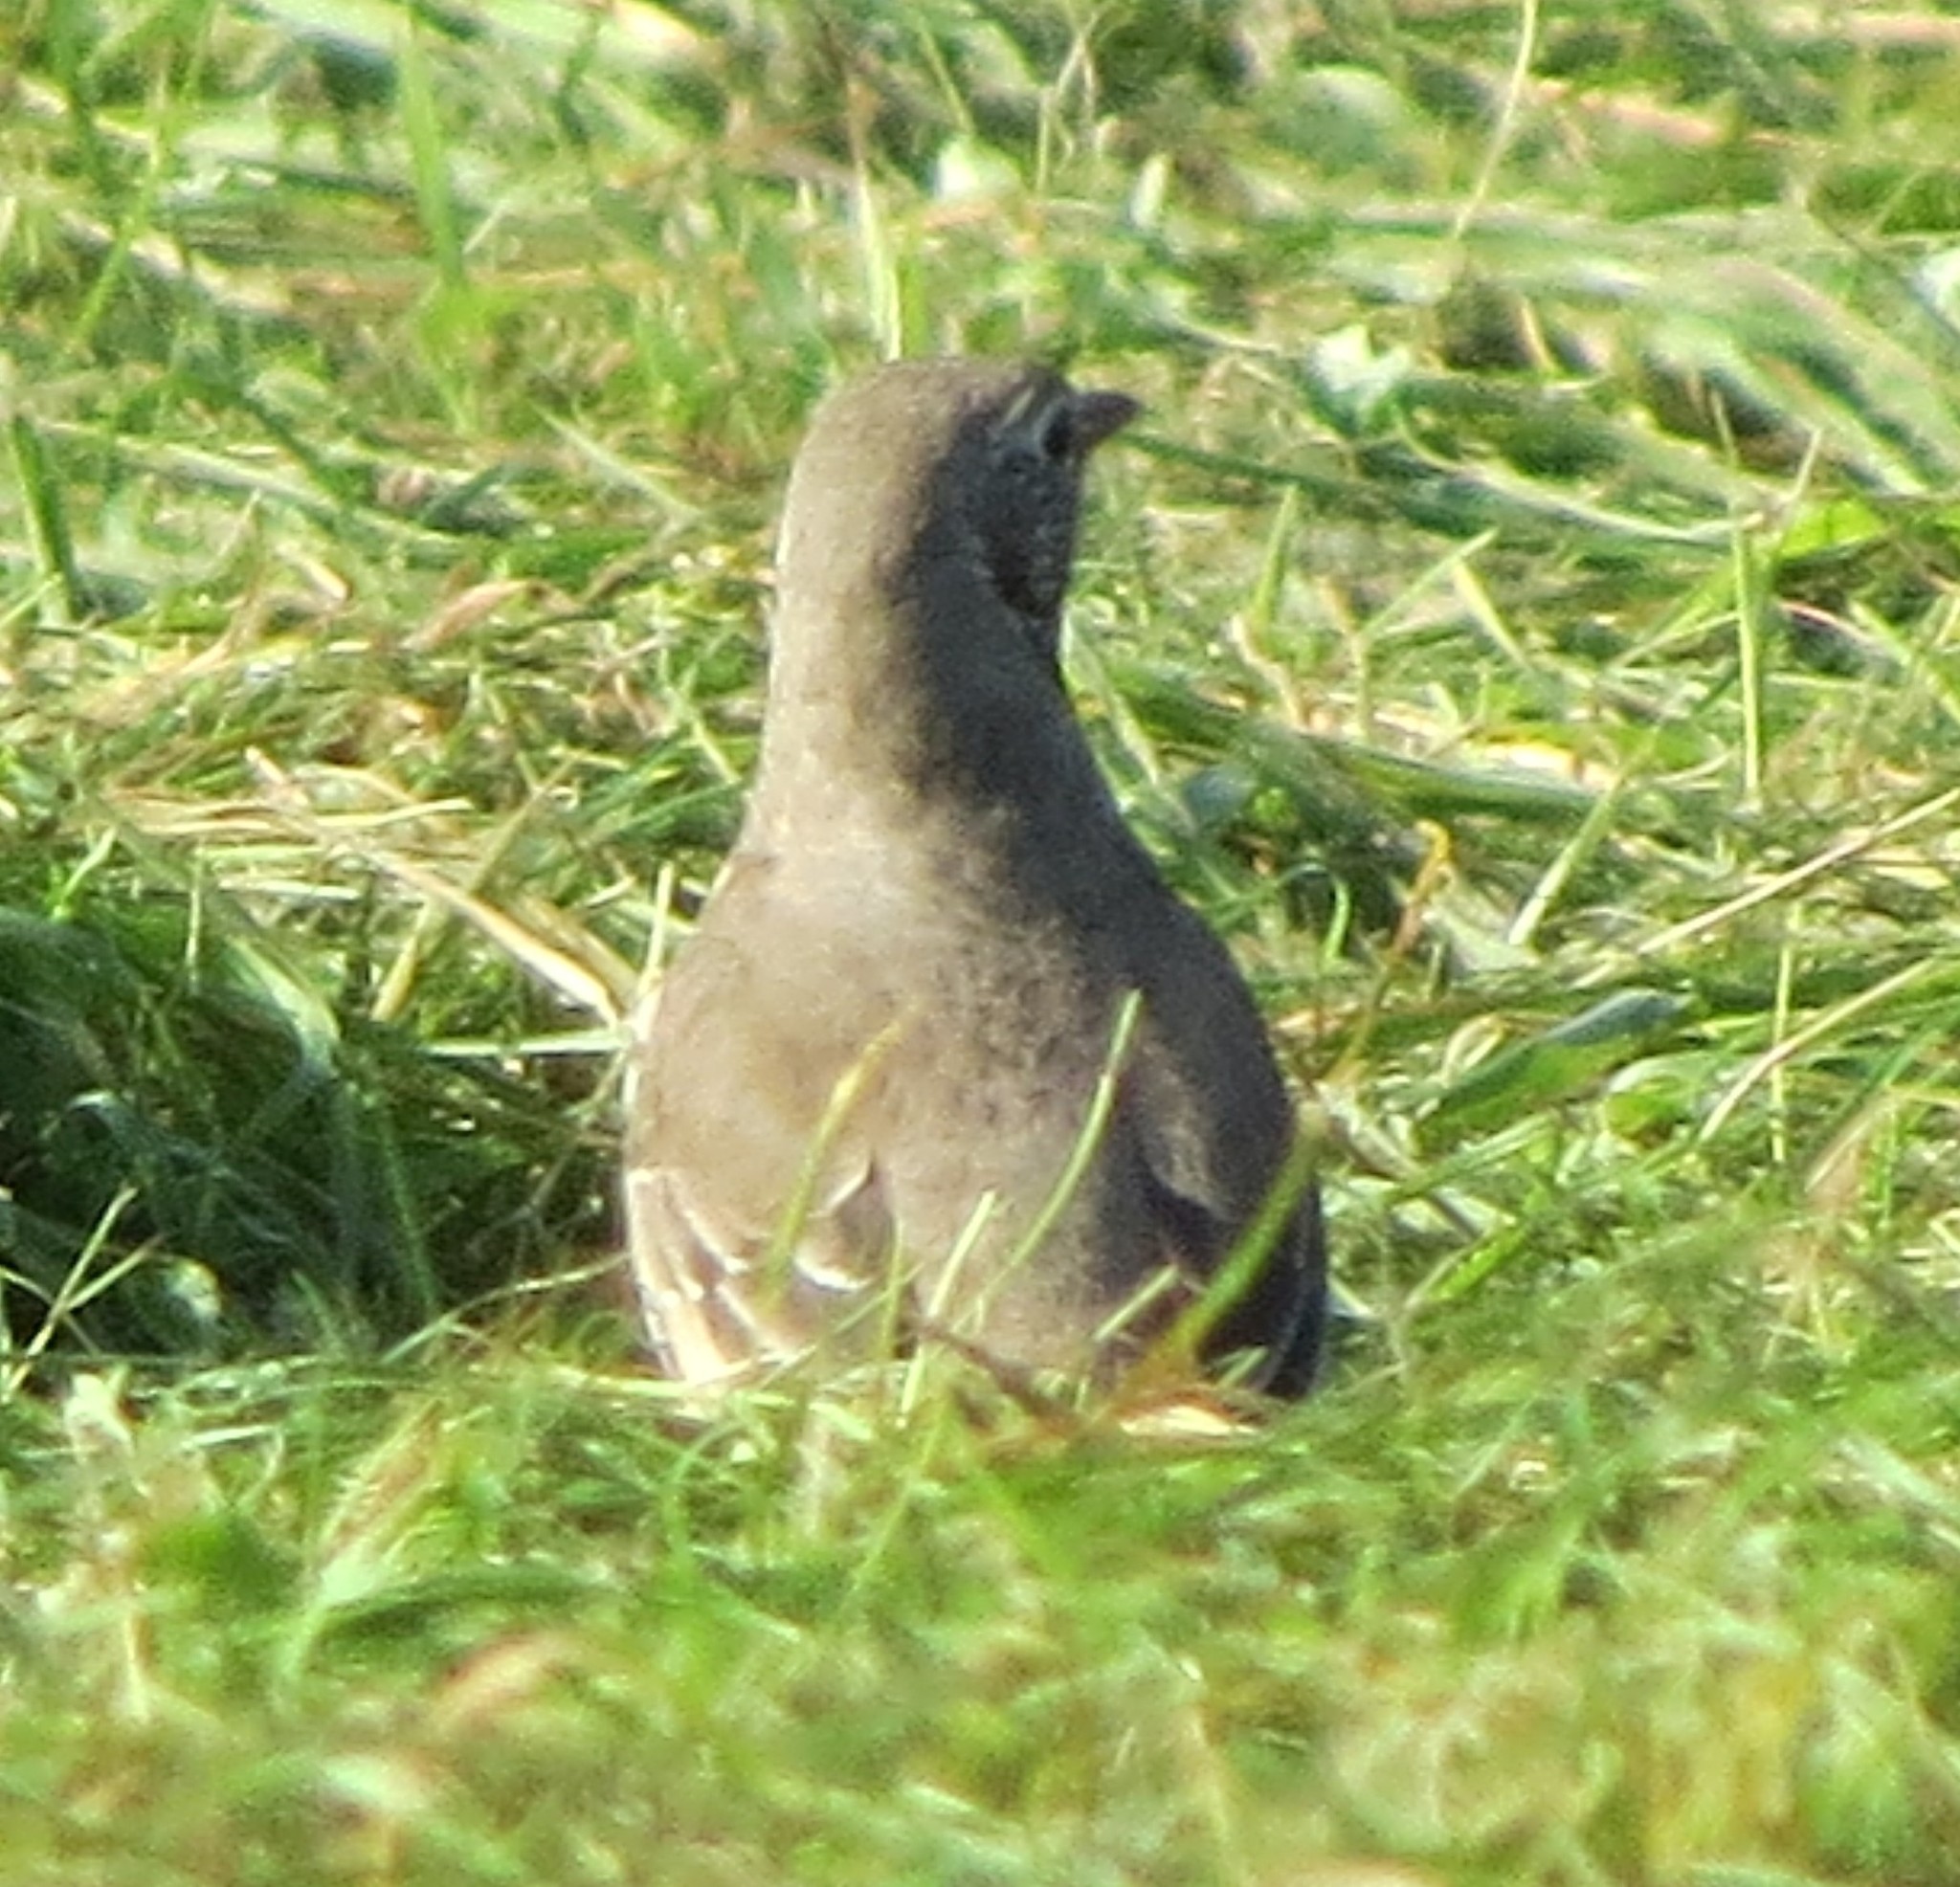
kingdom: Animalia
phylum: Chordata
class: Aves
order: Passeriformes
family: Turdidae
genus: Turdus
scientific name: Turdus viscivorus
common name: Mistle thrush
